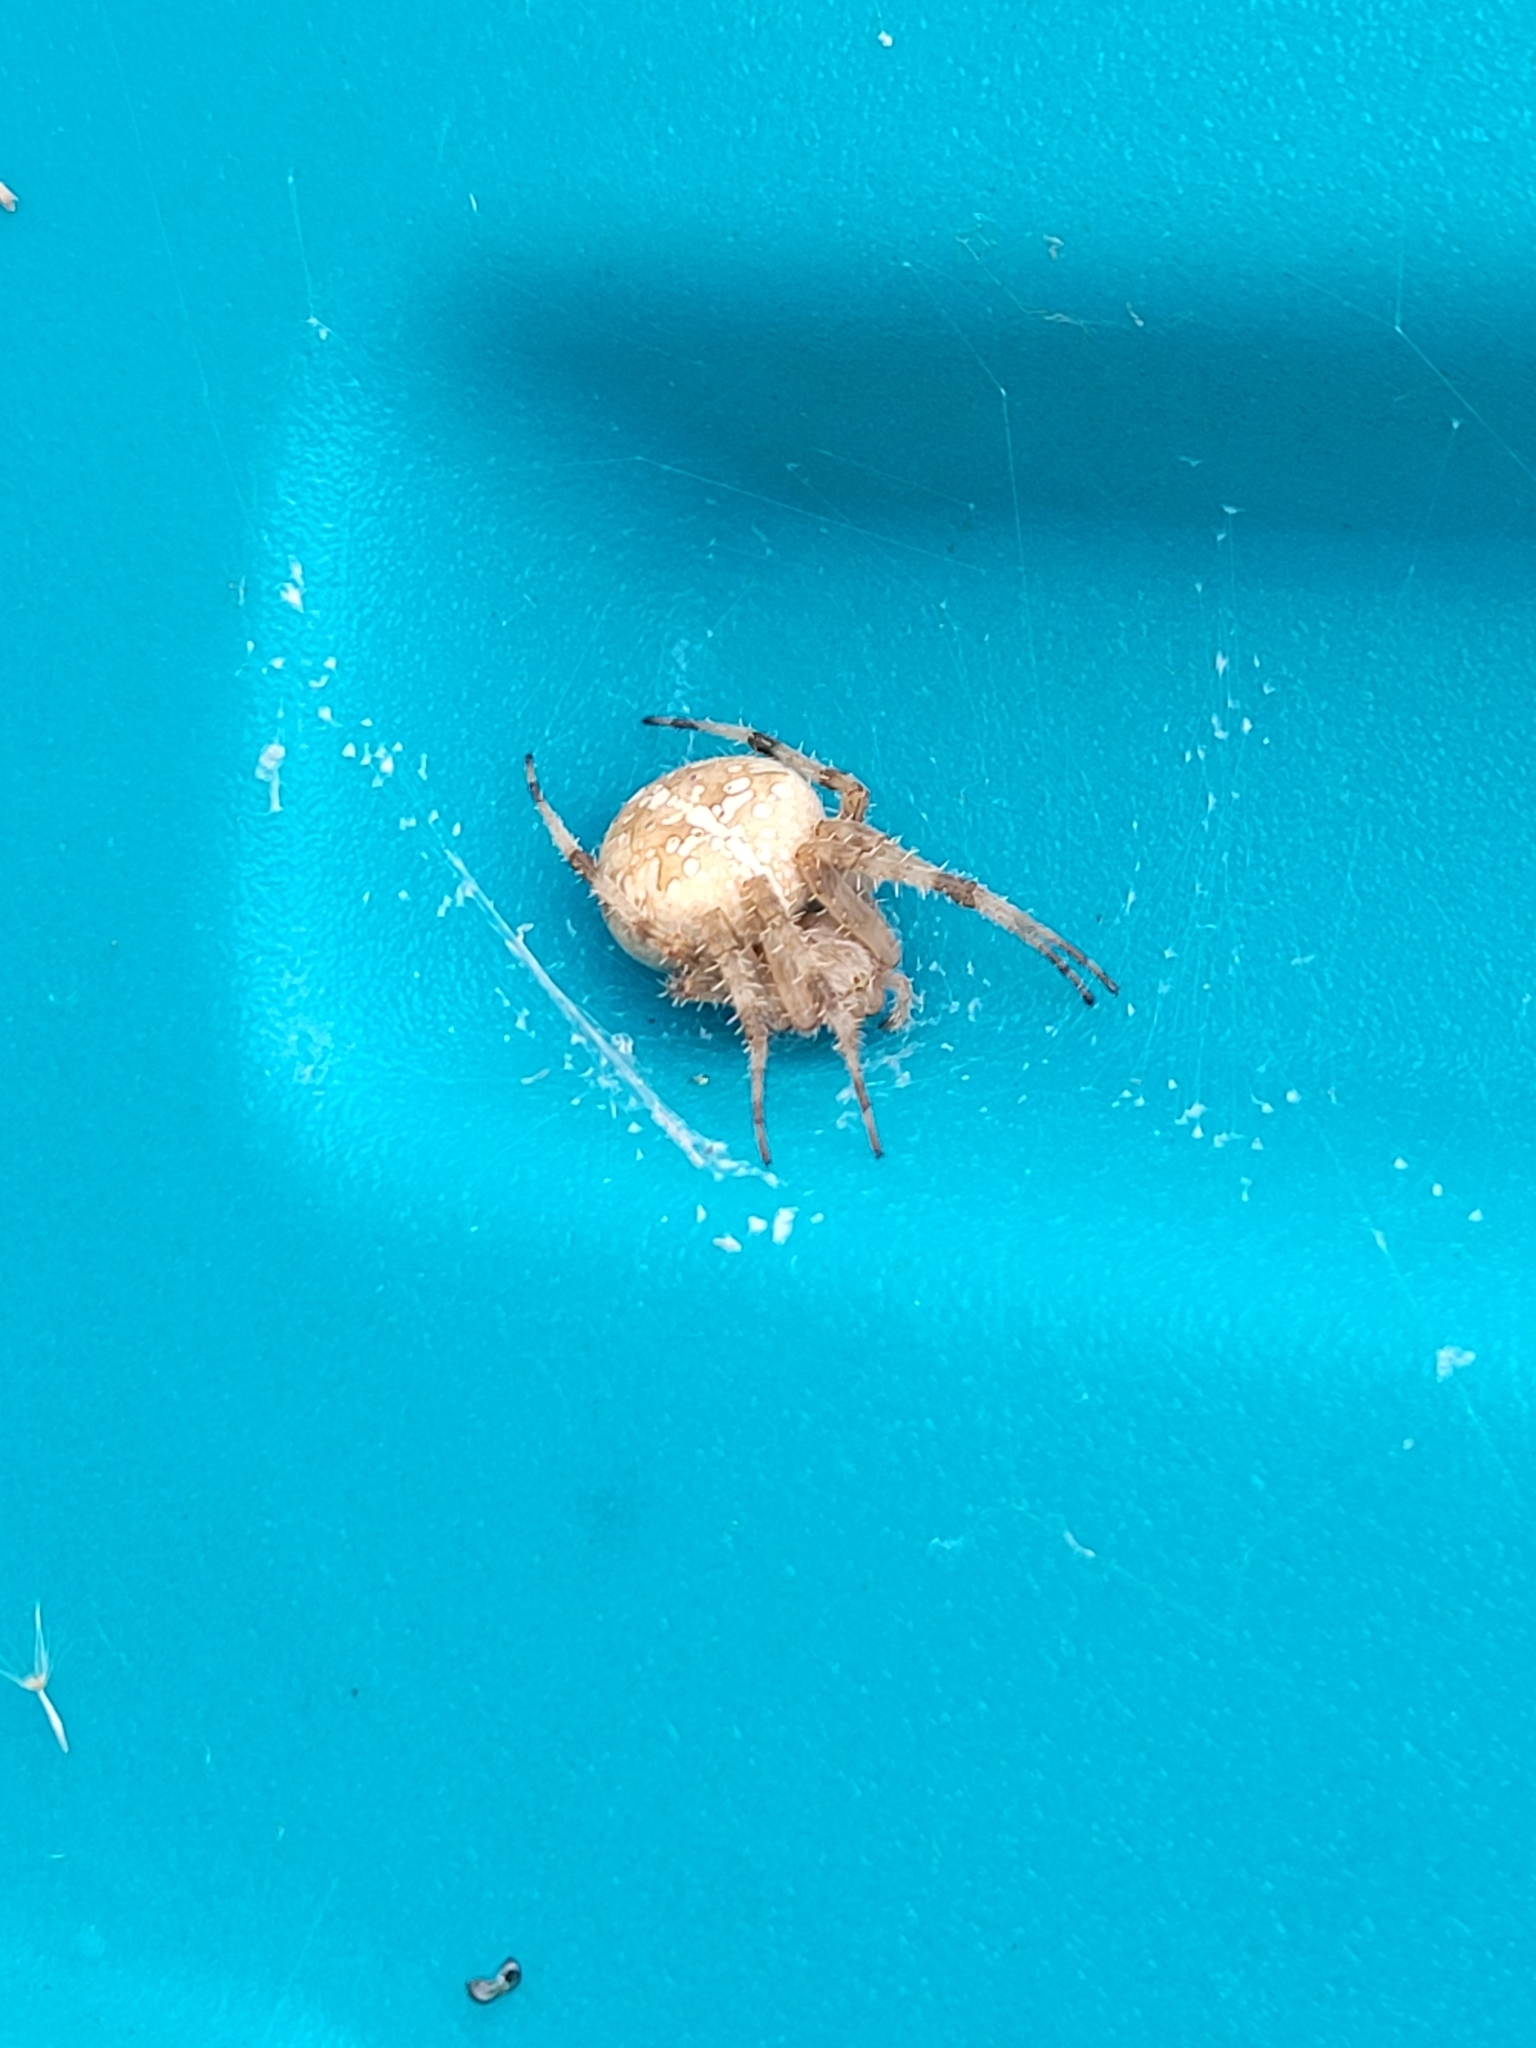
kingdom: Animalia
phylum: Arthropoda
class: Arachnida
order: Araneae
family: Araneidae
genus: Araneus
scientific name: Araneus diadematus
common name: Cross orbweaver
